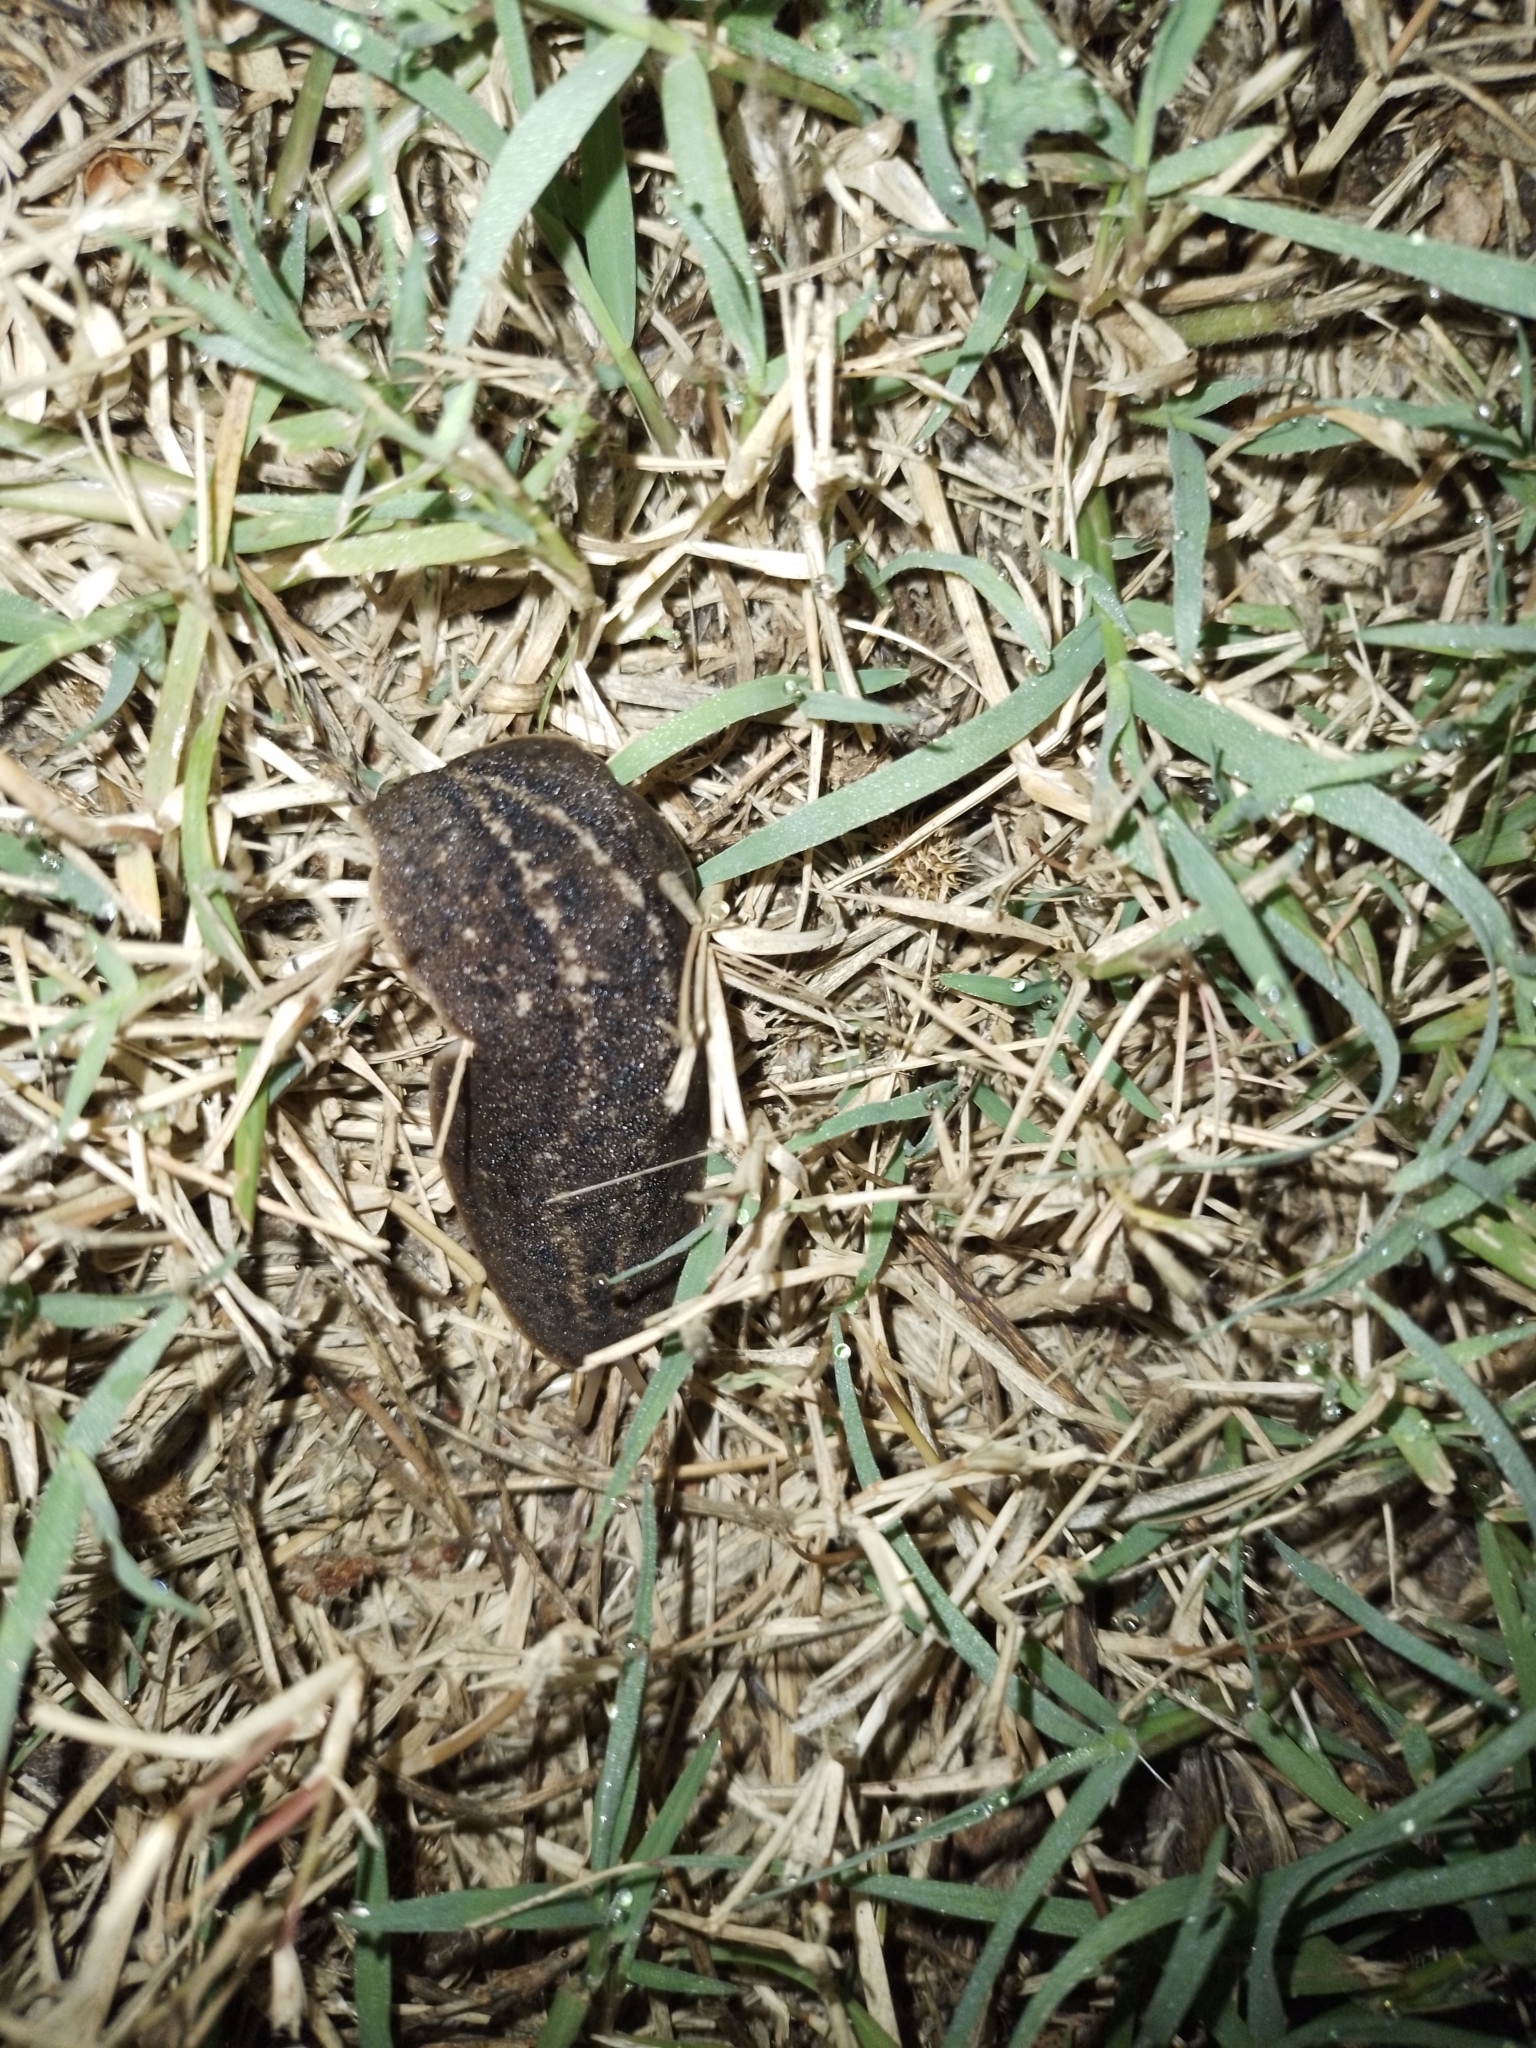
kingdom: Animalia
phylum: Mollusca
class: Gastropoda
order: Systellommatophora
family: Veronicellidae
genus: Phyllocaulis
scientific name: Phyllocaulis soleiformis
